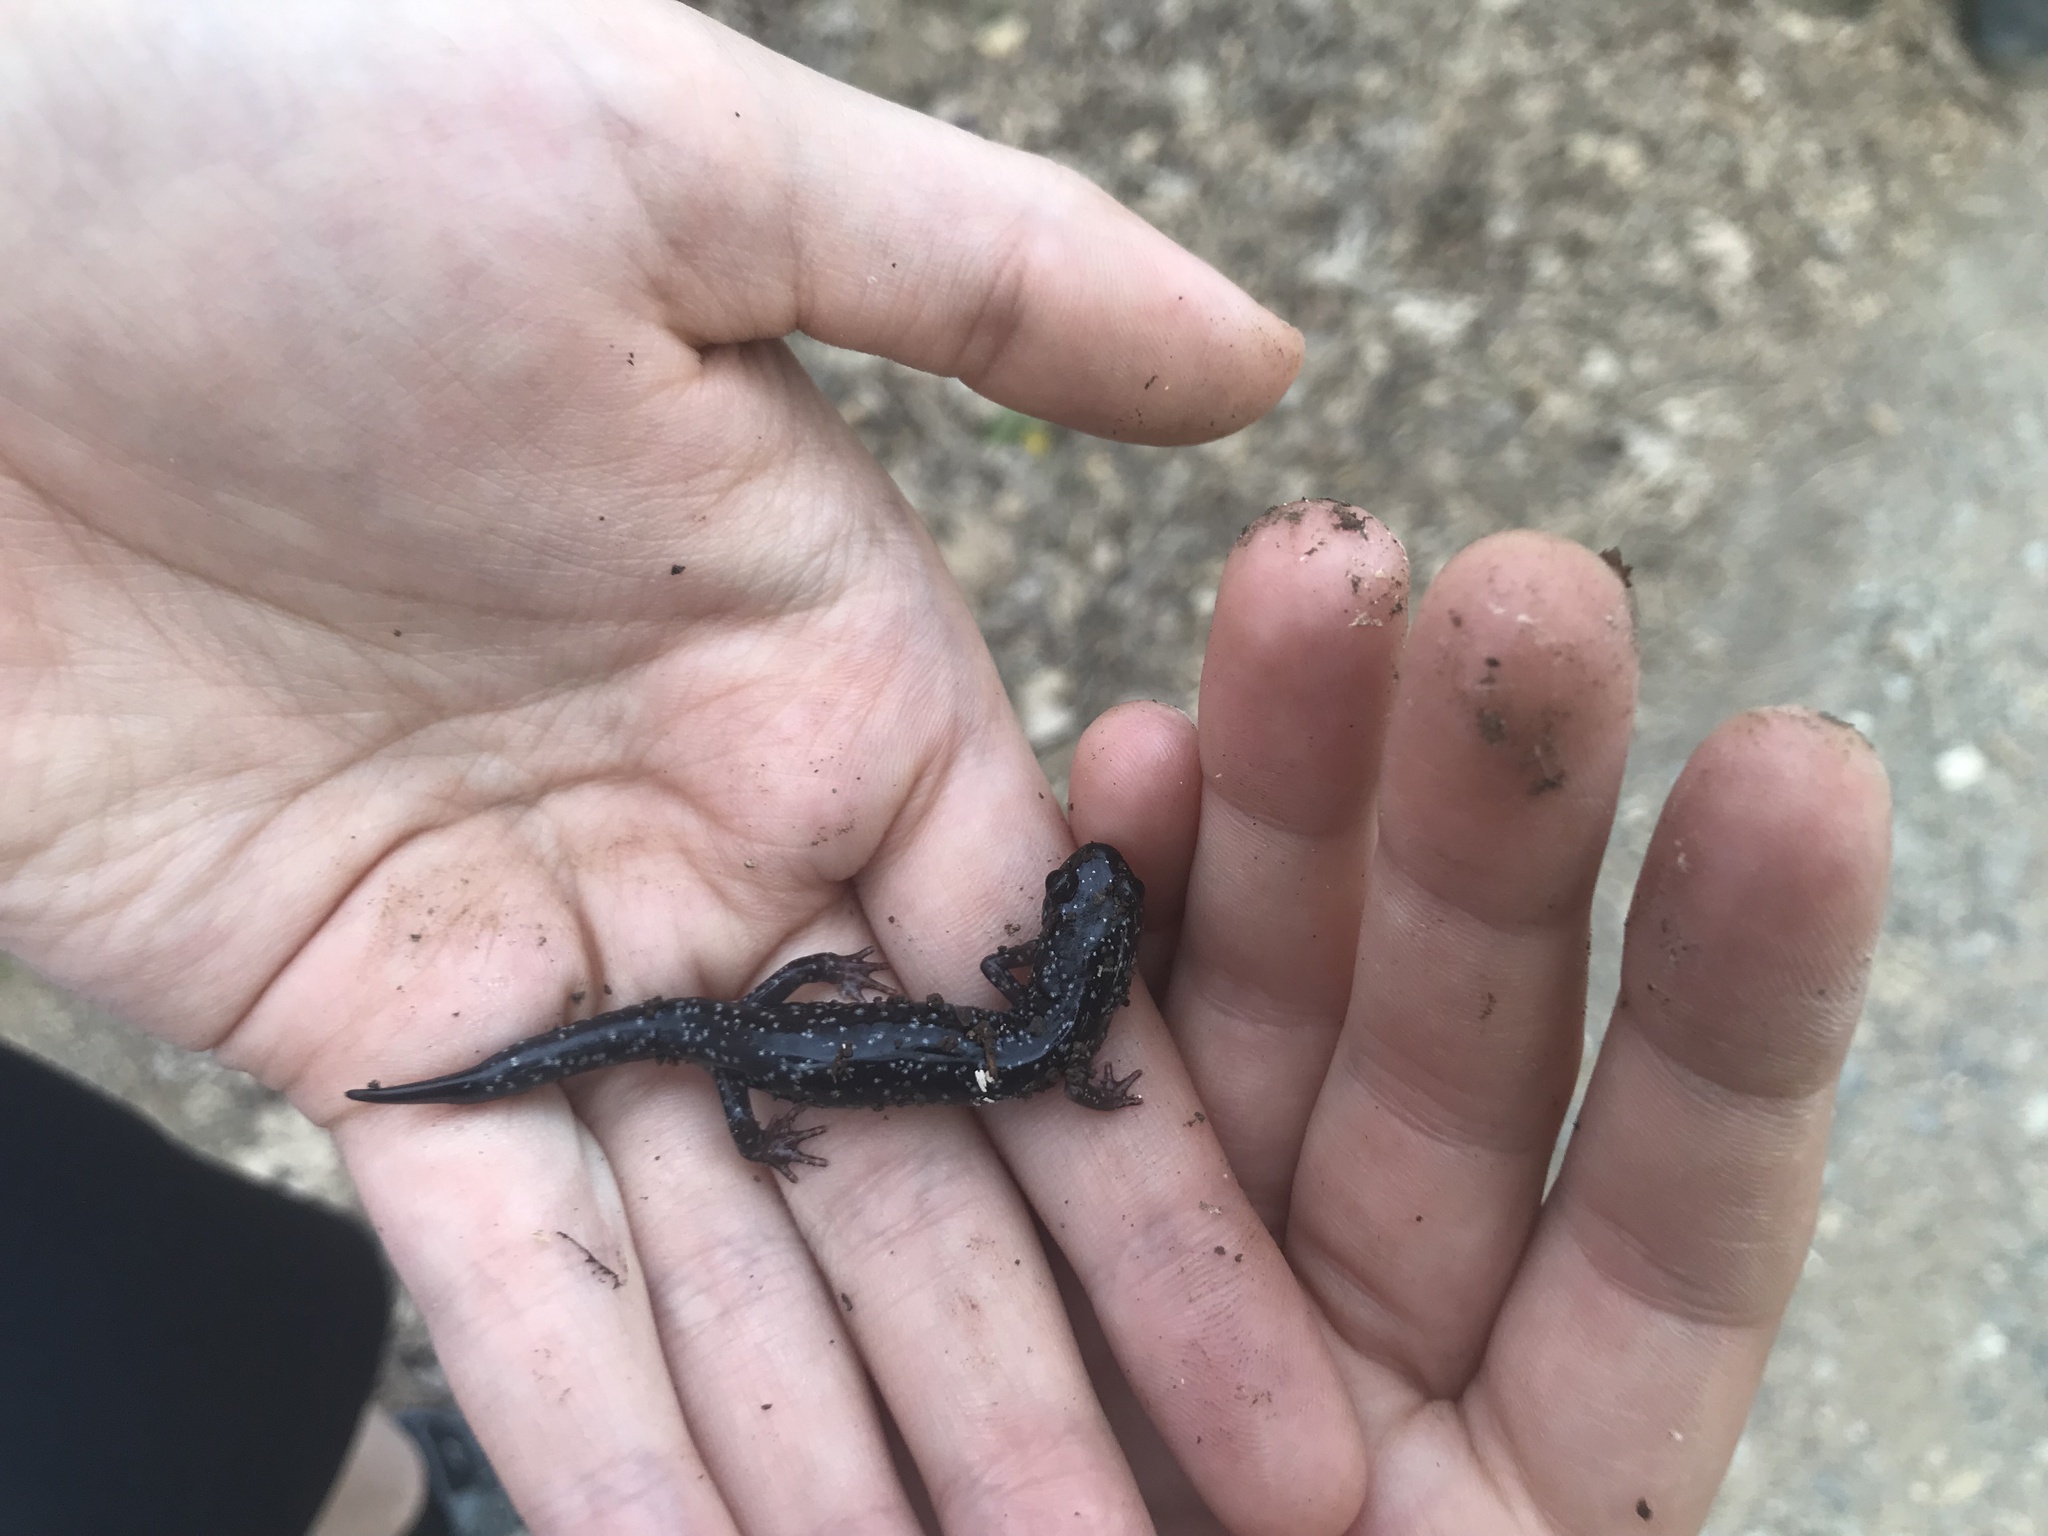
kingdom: Animalia
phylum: Chordata
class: Amphibia
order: Caudata
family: Plethodontidae
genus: Plethodon
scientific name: Plethodon cylindraceus
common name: White-spotted slimy salamander
